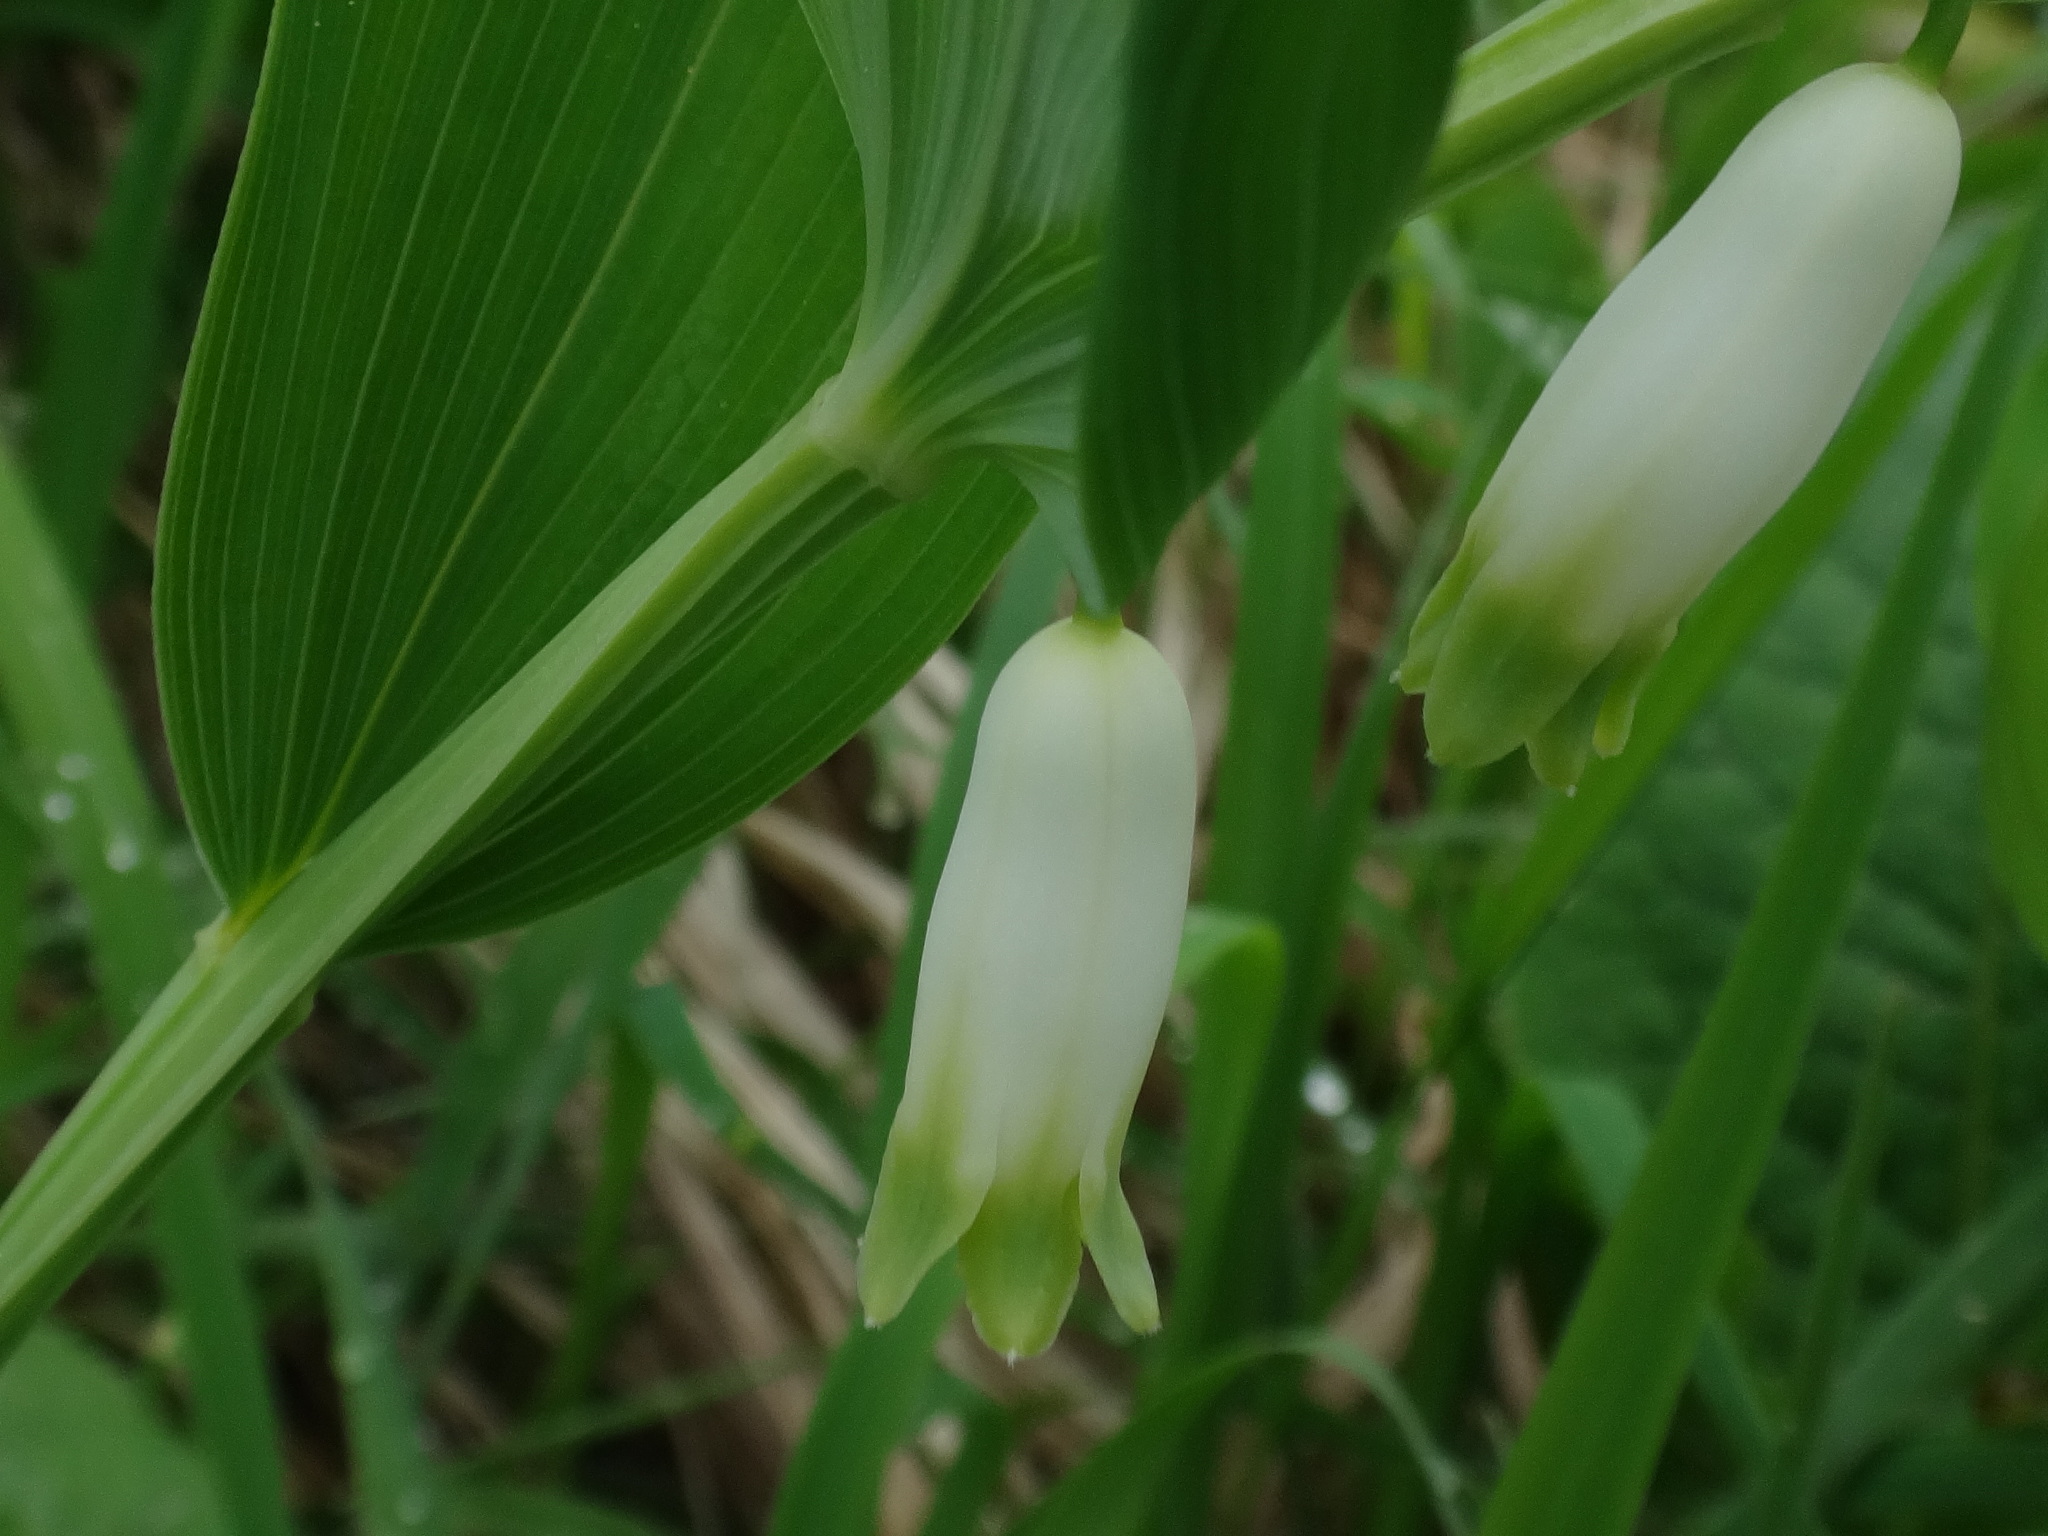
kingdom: Plantae
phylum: Tracheophyta
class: Liliopsida
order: Asparagales
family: Asparagaceae
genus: Polygonatum
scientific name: Polygonatum odoratum
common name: Angular solomon's-seal
